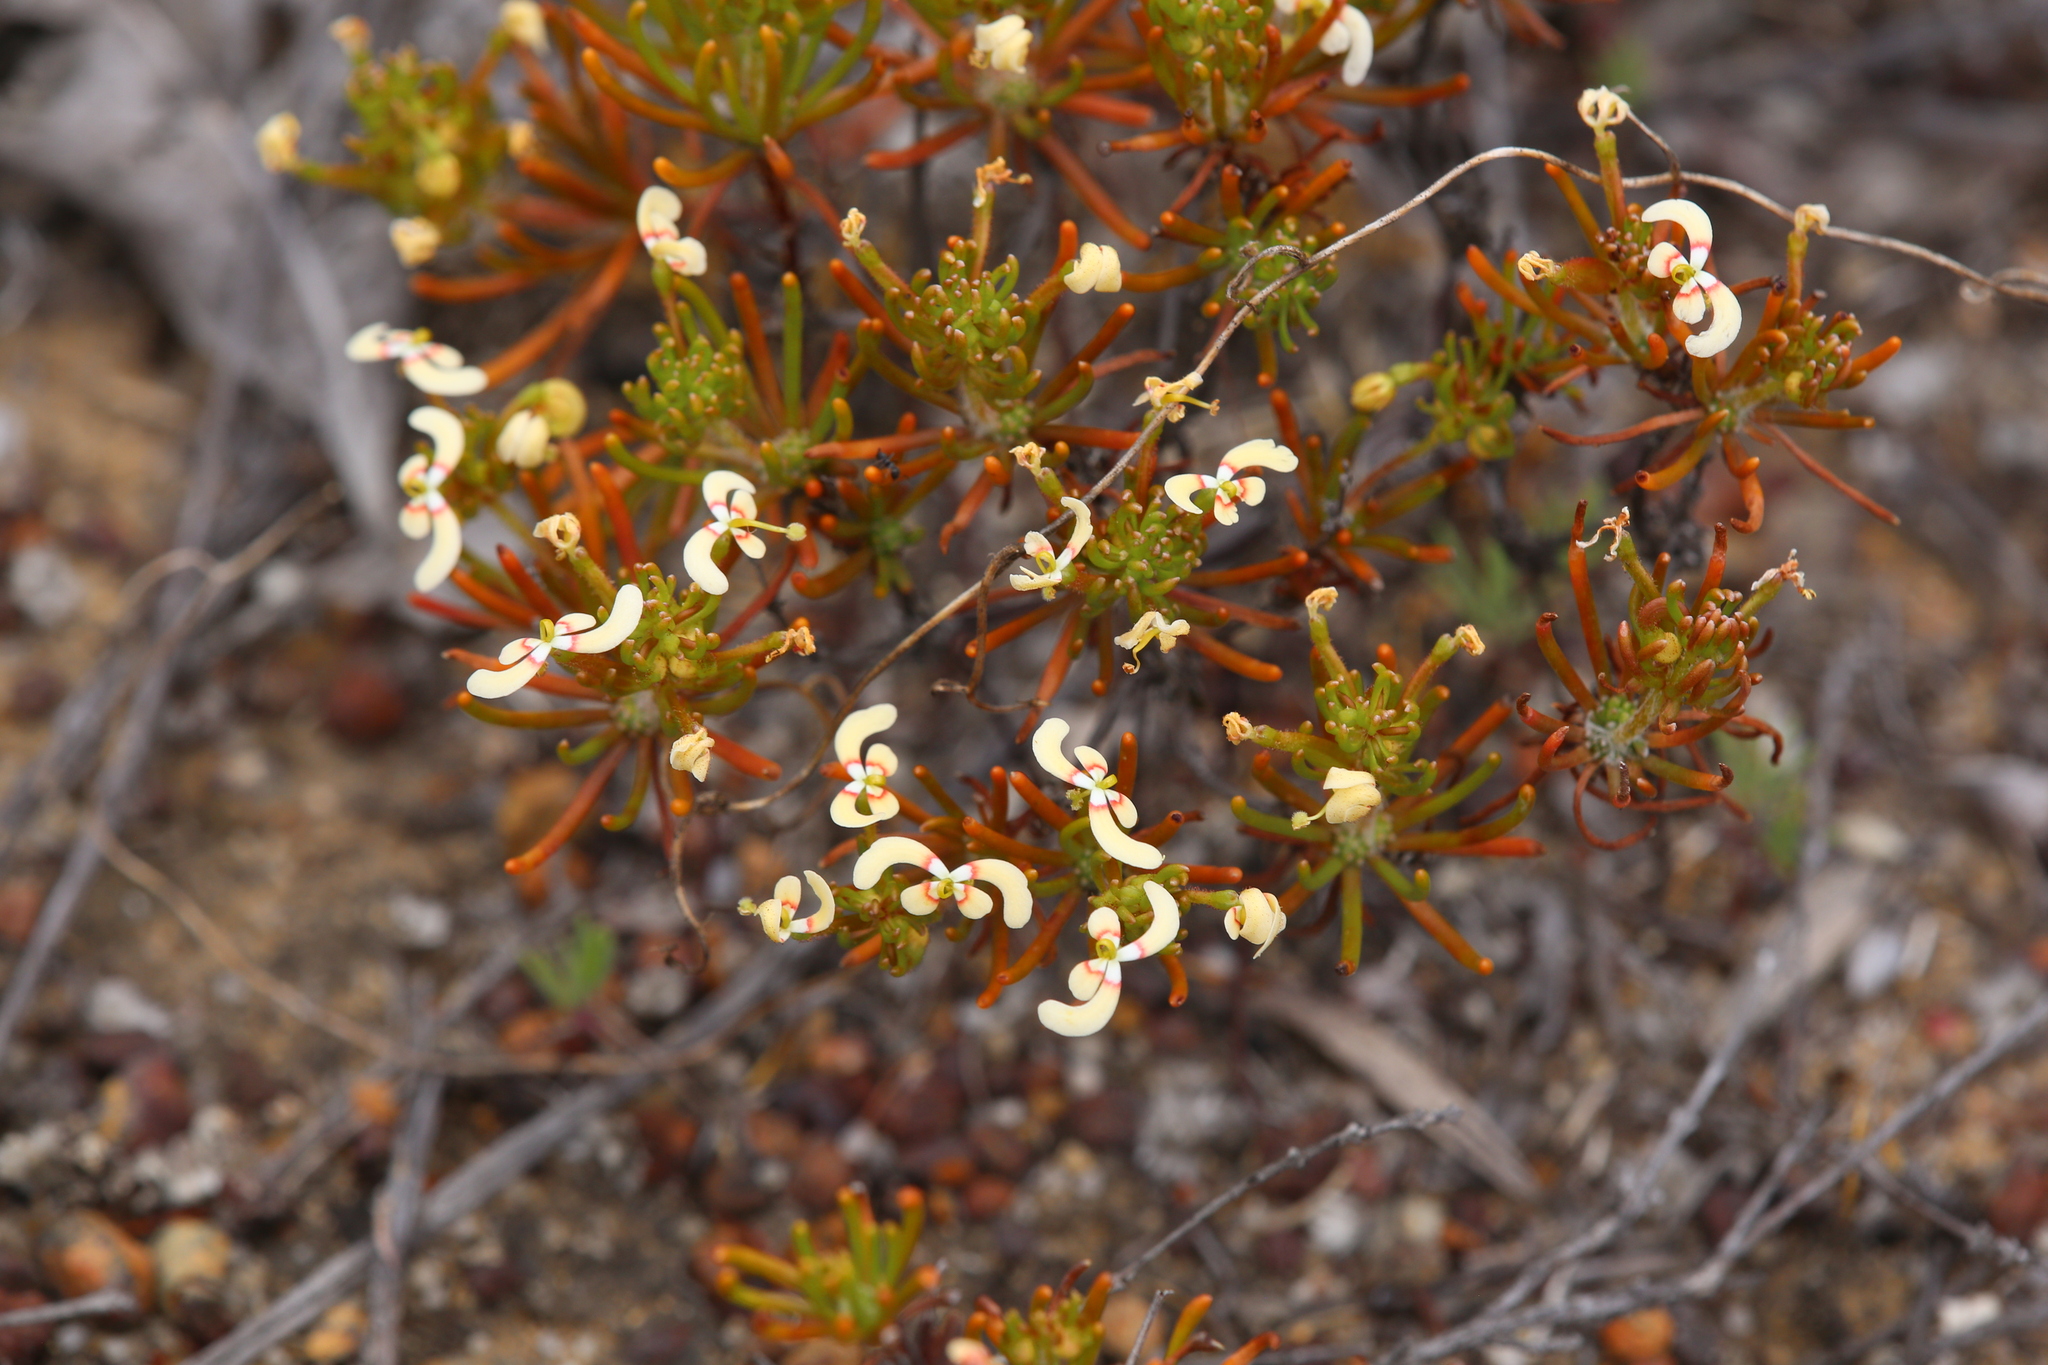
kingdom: Plantae
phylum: Tracheophyta
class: Magnoliopsida
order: Asterales
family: Stylidiaceae
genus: Stylidium
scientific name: Stylidium breviscapum
